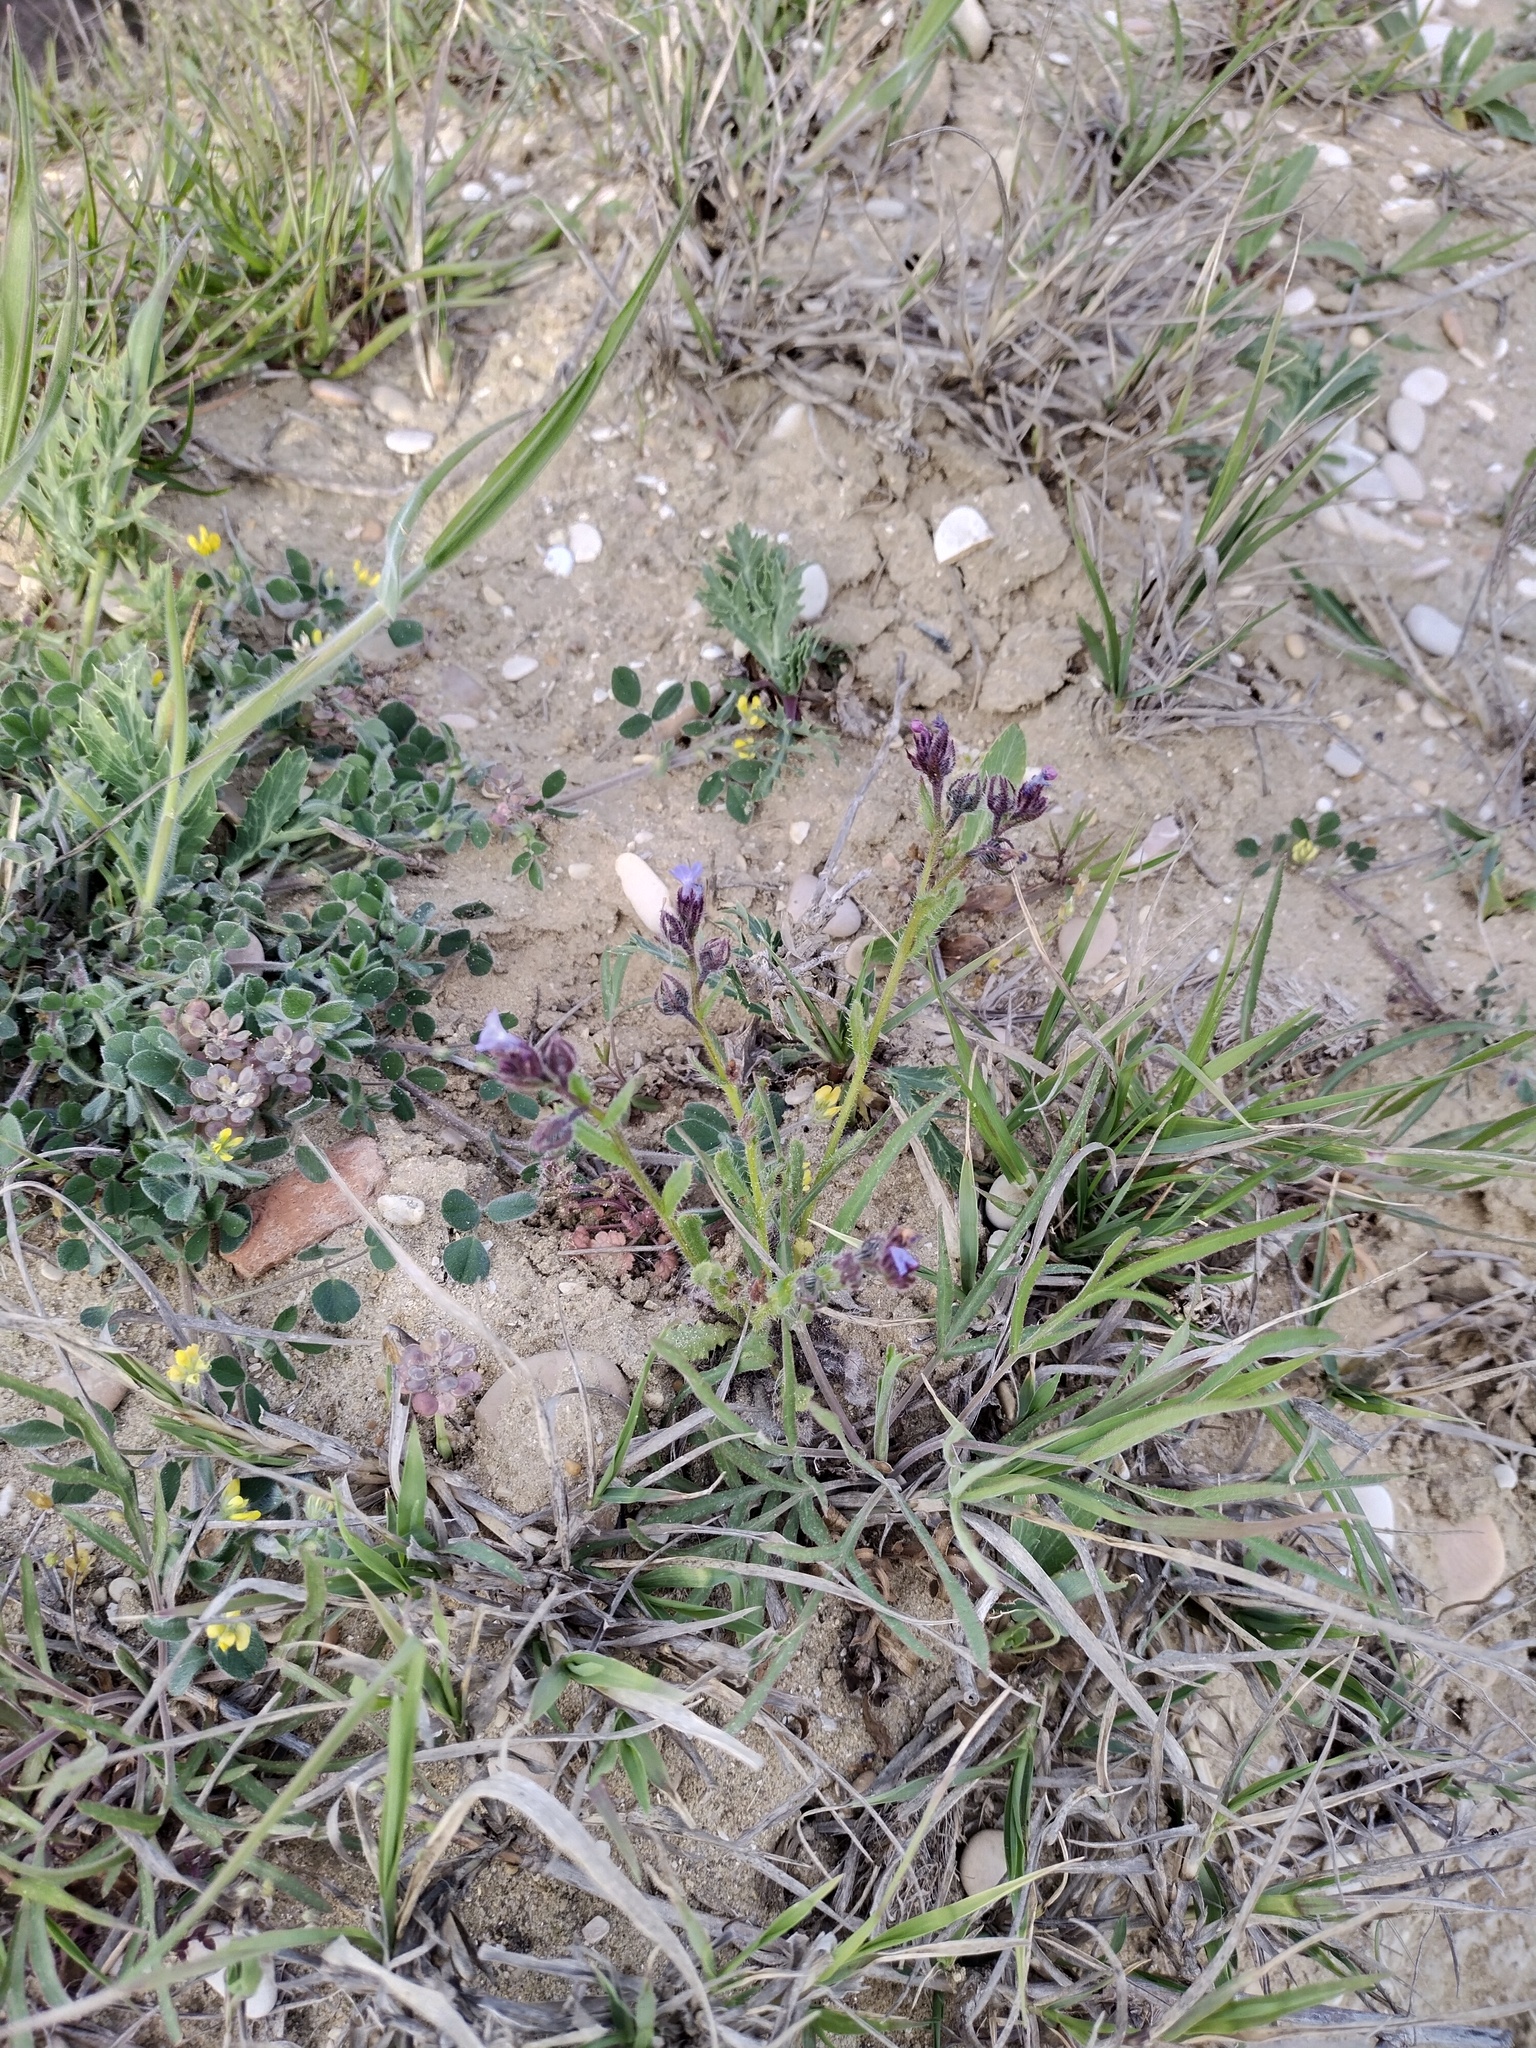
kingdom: Plantae
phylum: Tracheophyta
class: Magnoliopsida
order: Boraginales
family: Boraginaceae
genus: Lycopsis
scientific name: Lycopsis arvensis
